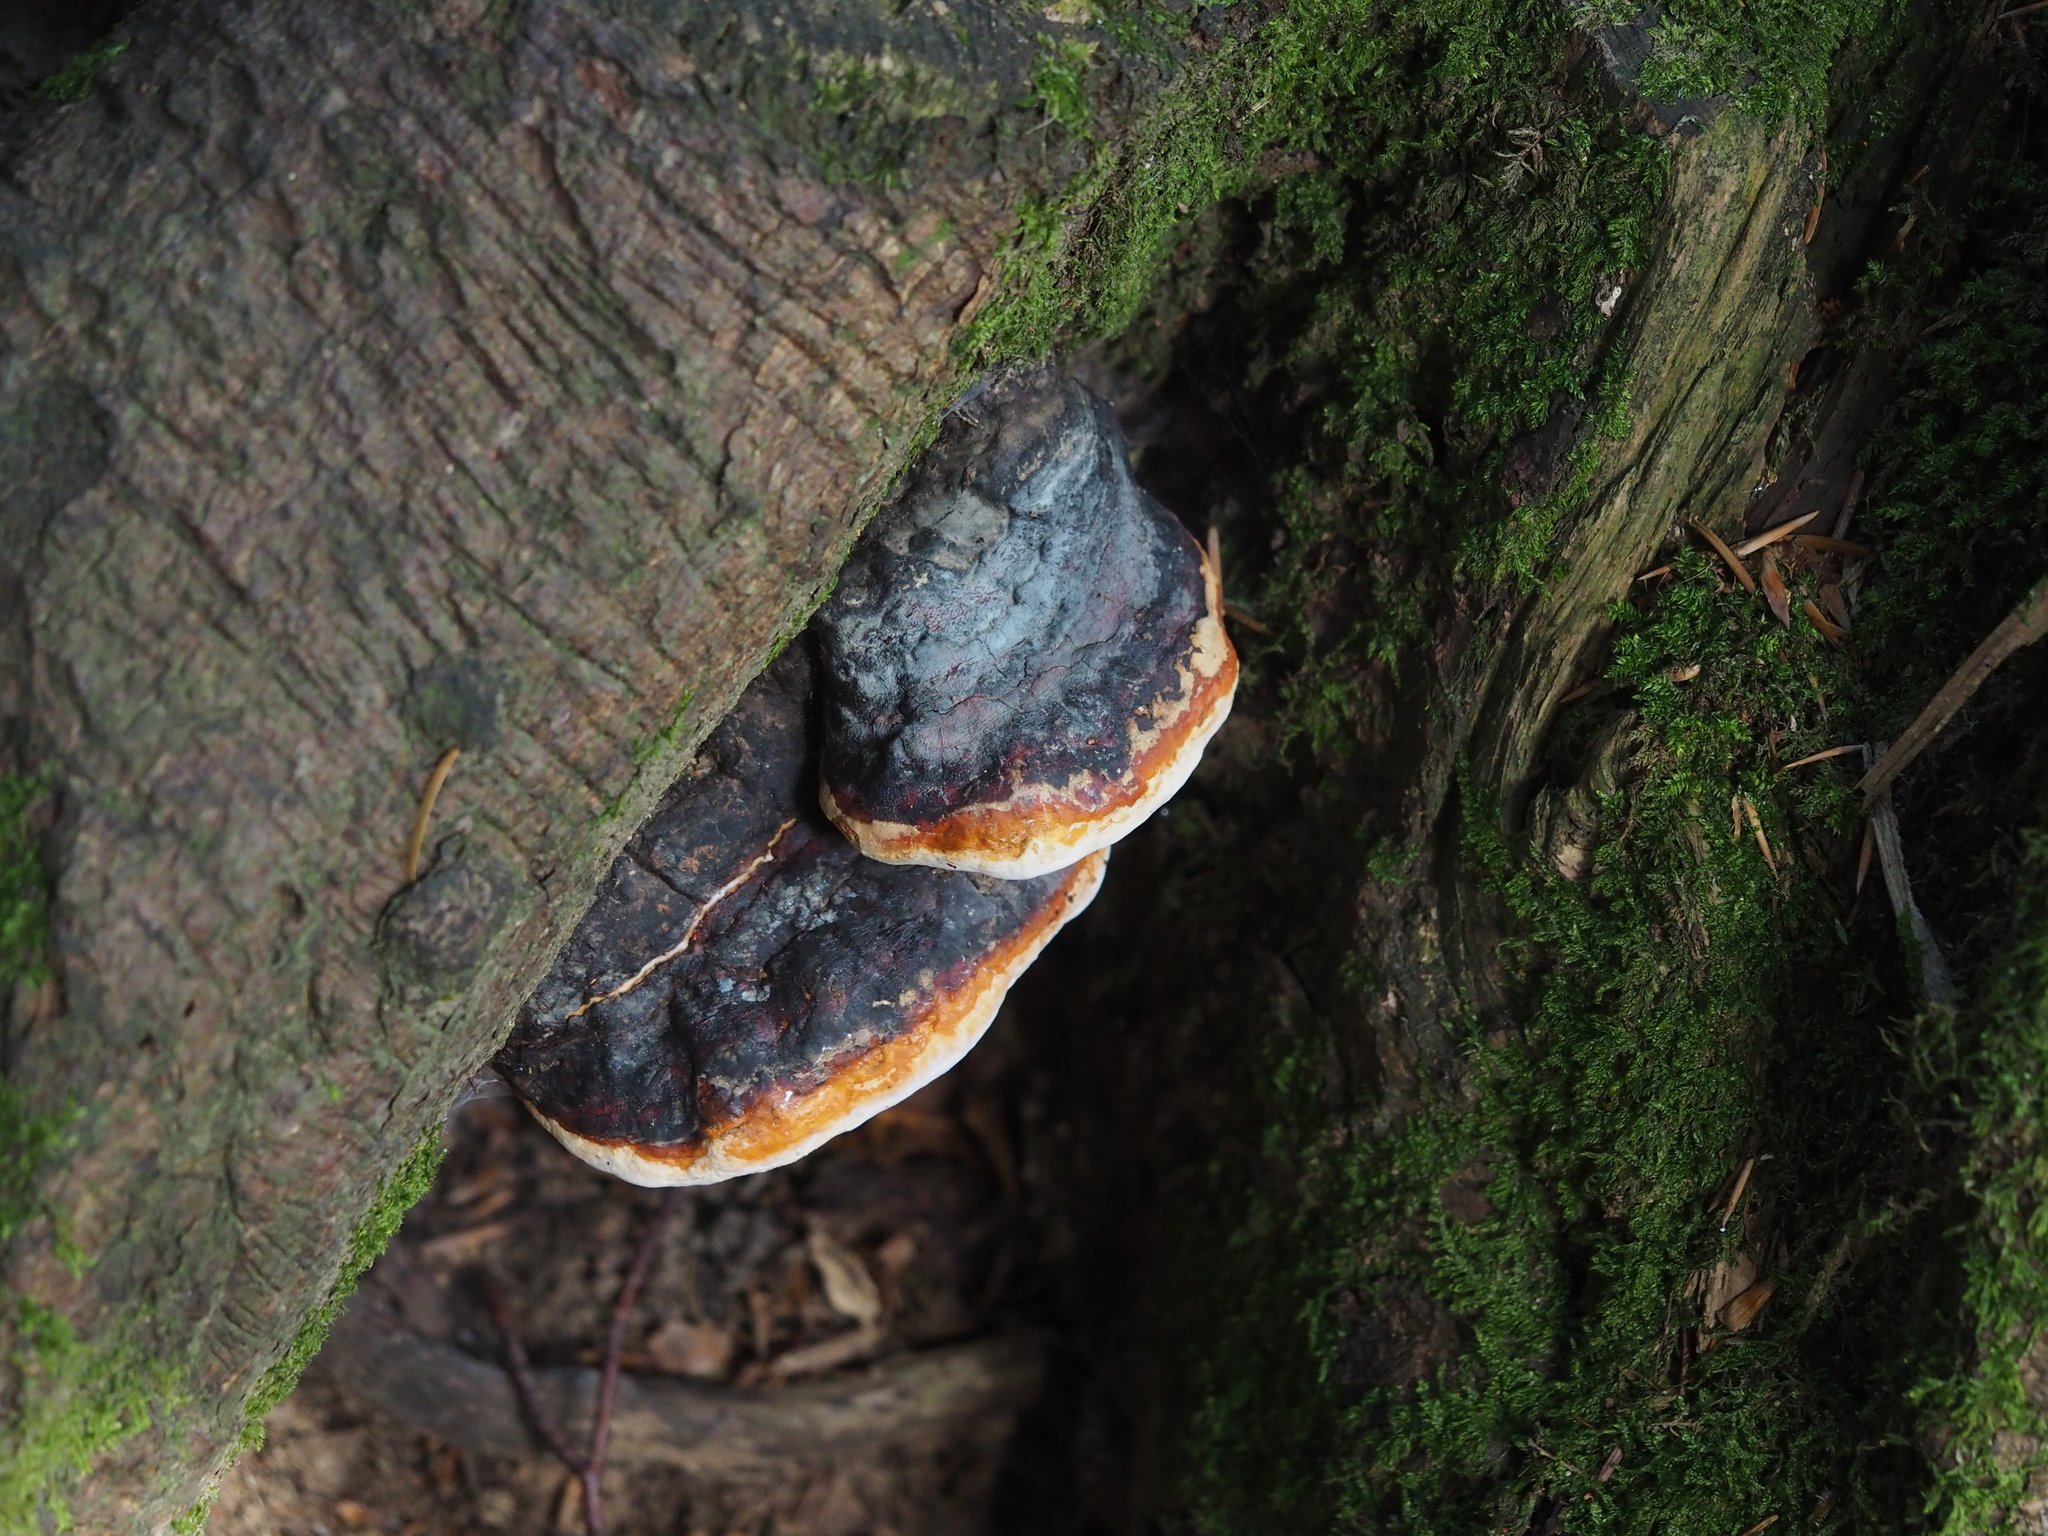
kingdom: Fungi
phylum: Basidiomycota
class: Agaricomycetes
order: Polyporales
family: Fomitopsidaceae
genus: Fomitopsis
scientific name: Fomitopsis pinicola
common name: Red-belted bracket
